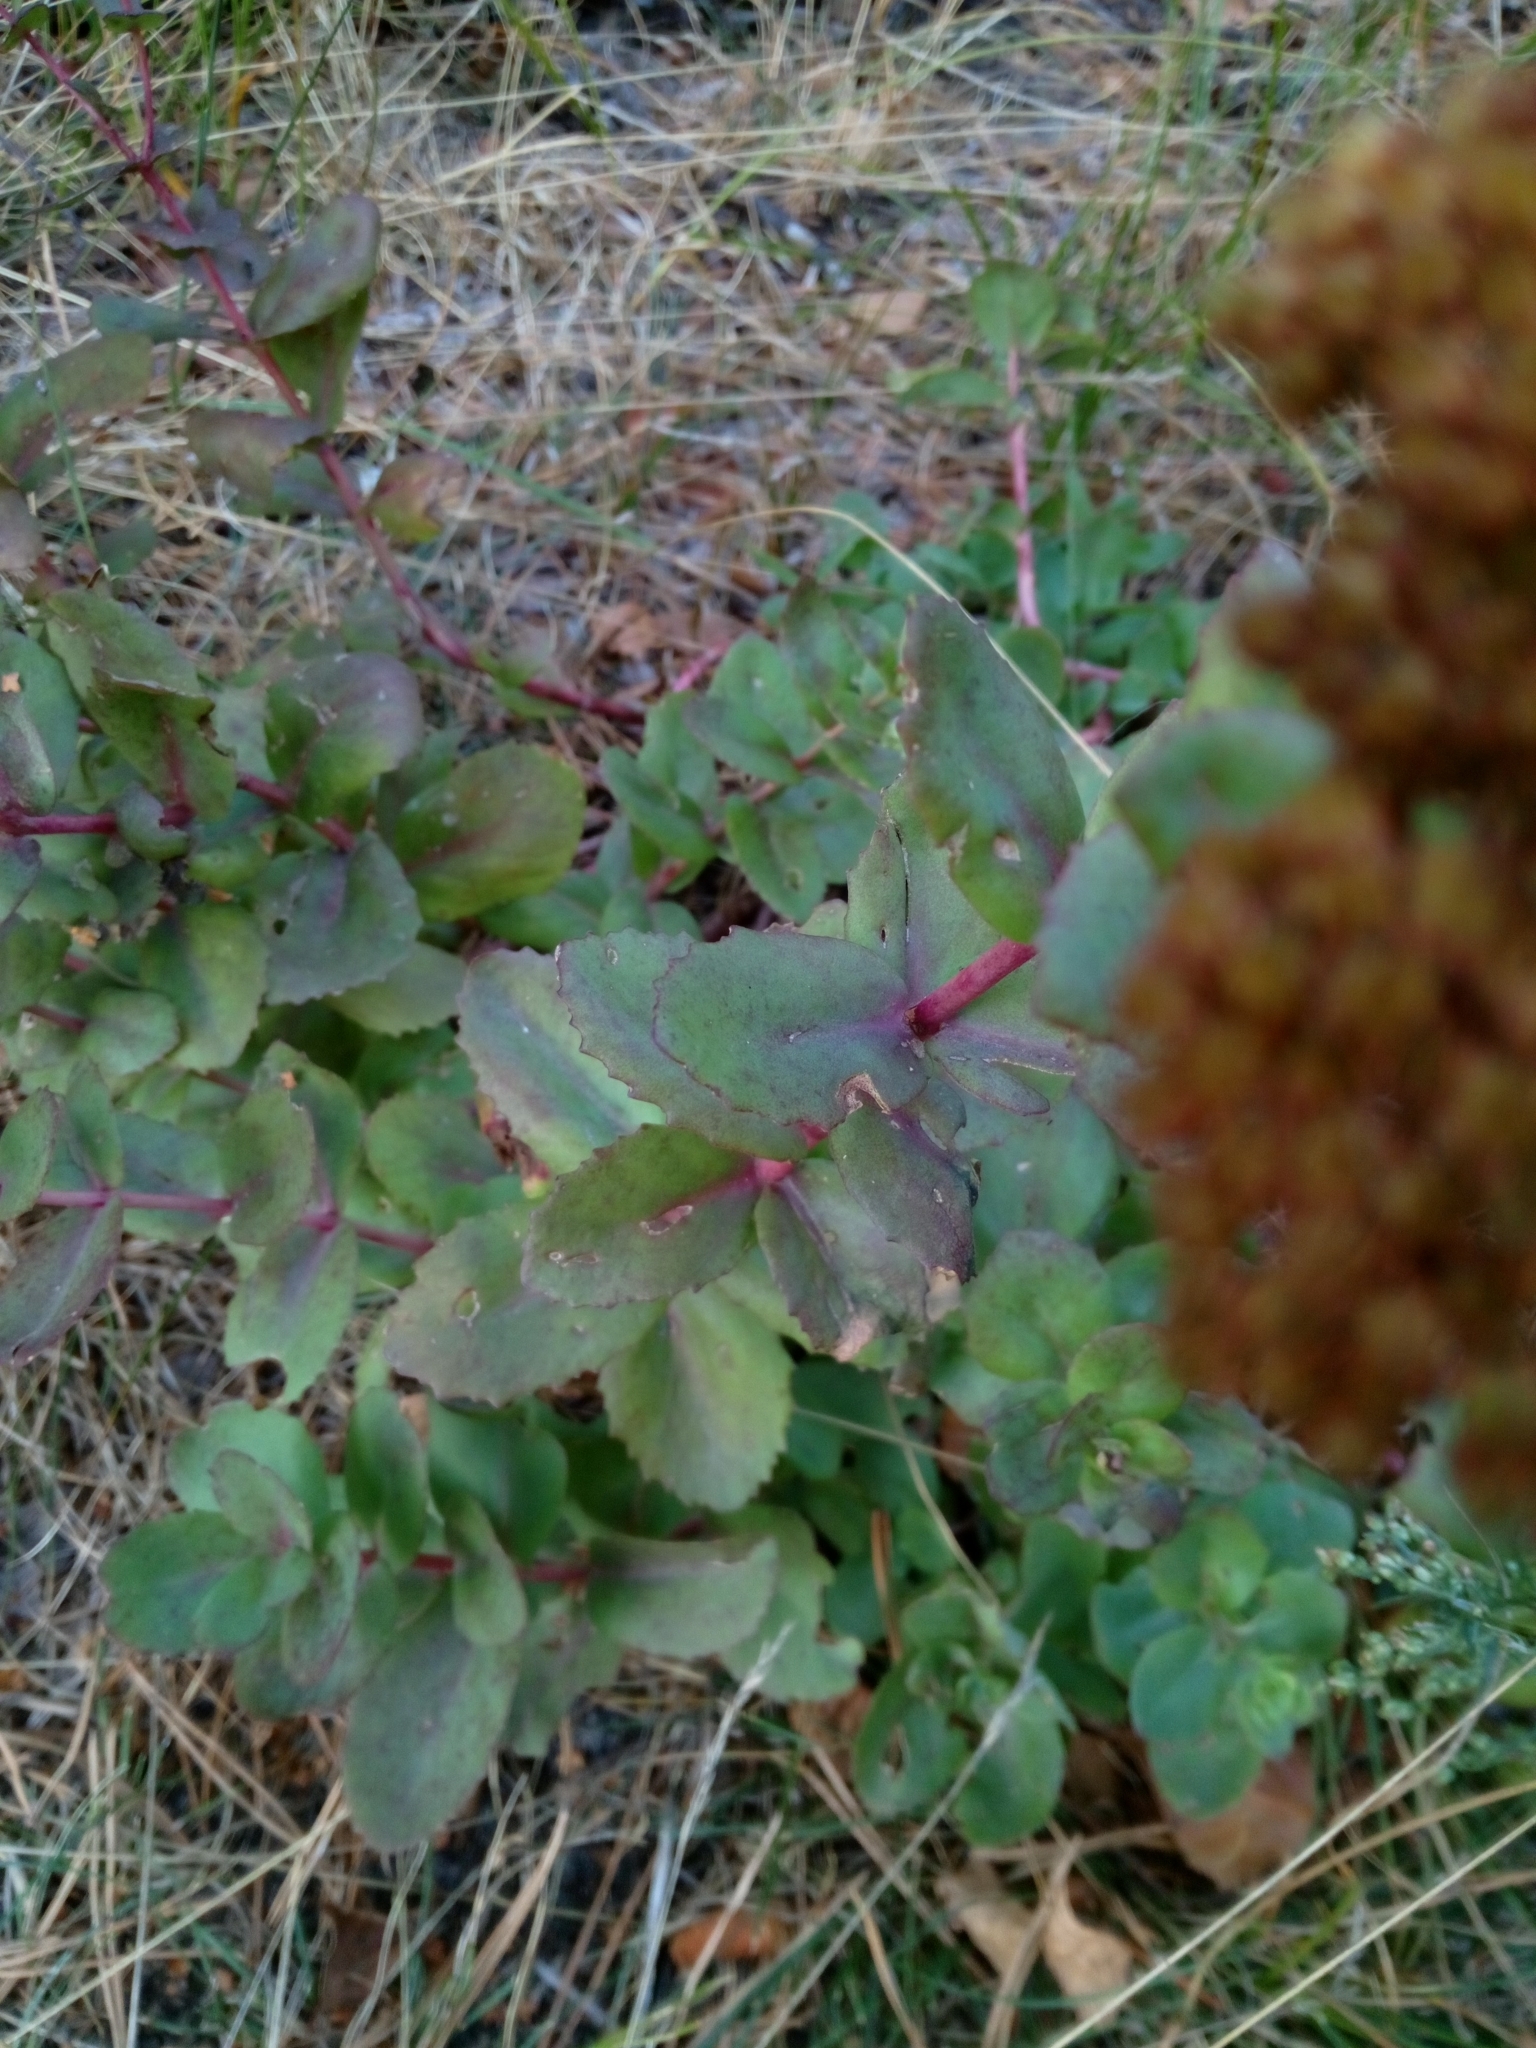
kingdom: Plantae
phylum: Tracheophyta
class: Magnoliopsida
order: Saxifragales
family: Crassulaceae
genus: Hylotelephium
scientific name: Hylotelephium maximum
